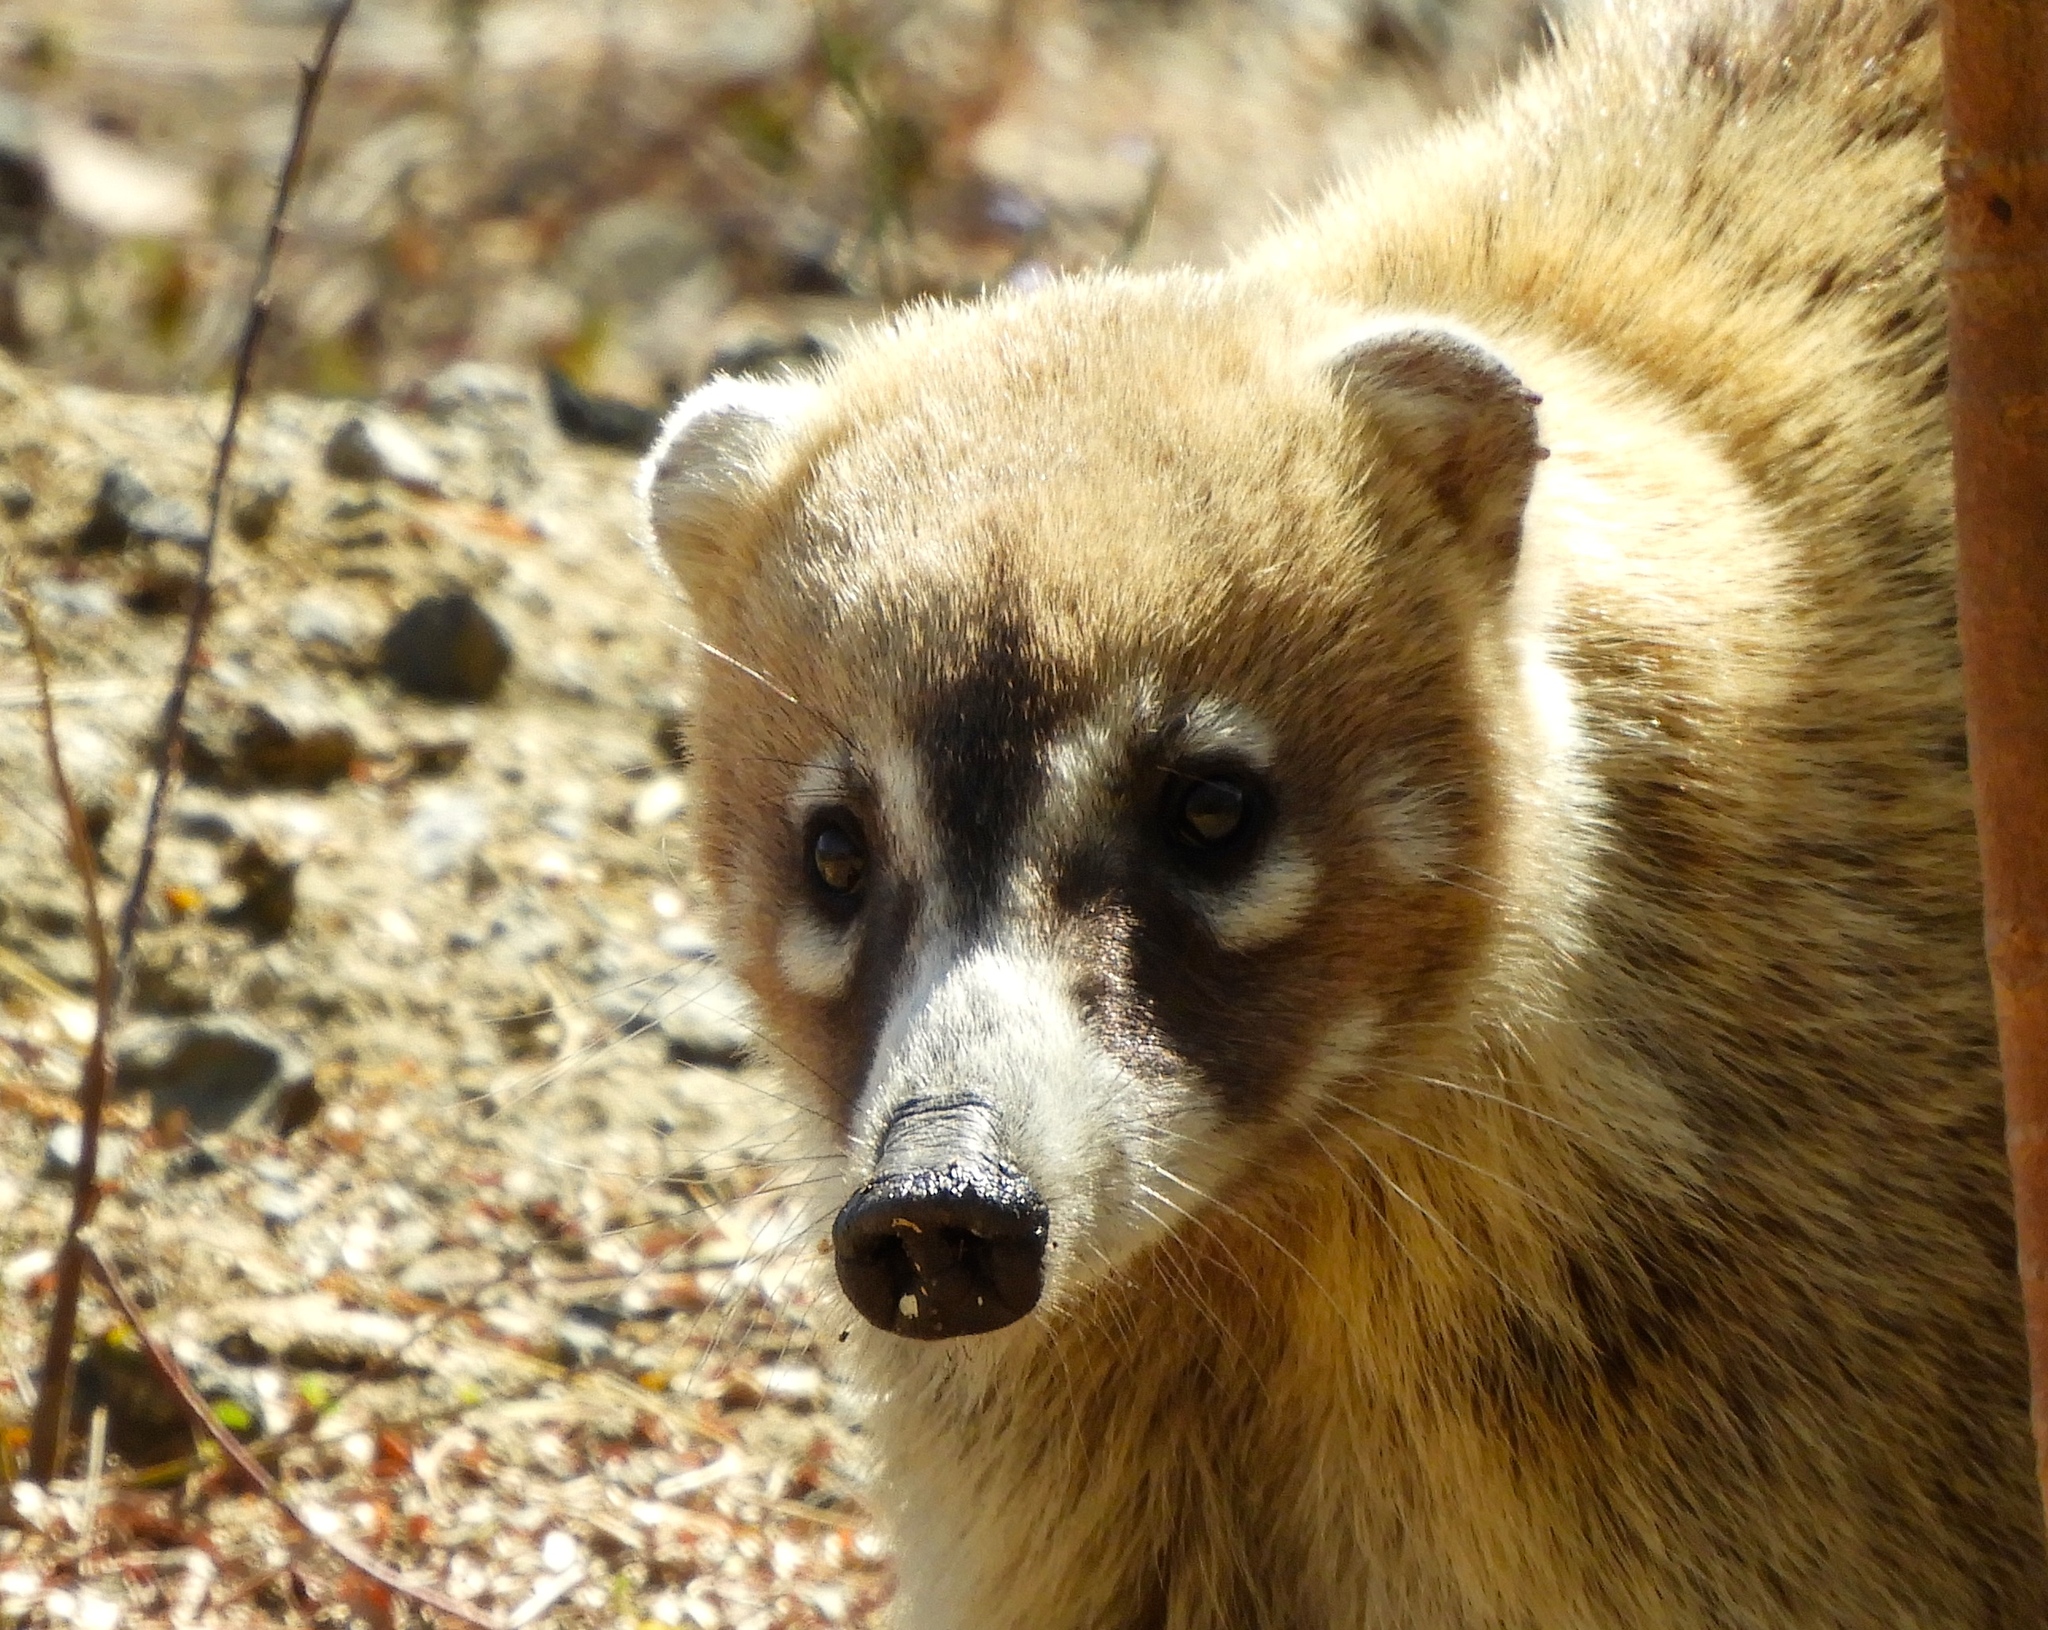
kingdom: Animalia
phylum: Chordata
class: Mammalia
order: Carnivora
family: Procyonidae
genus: Nasua
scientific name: Nasua narica
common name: White-nosed coati
